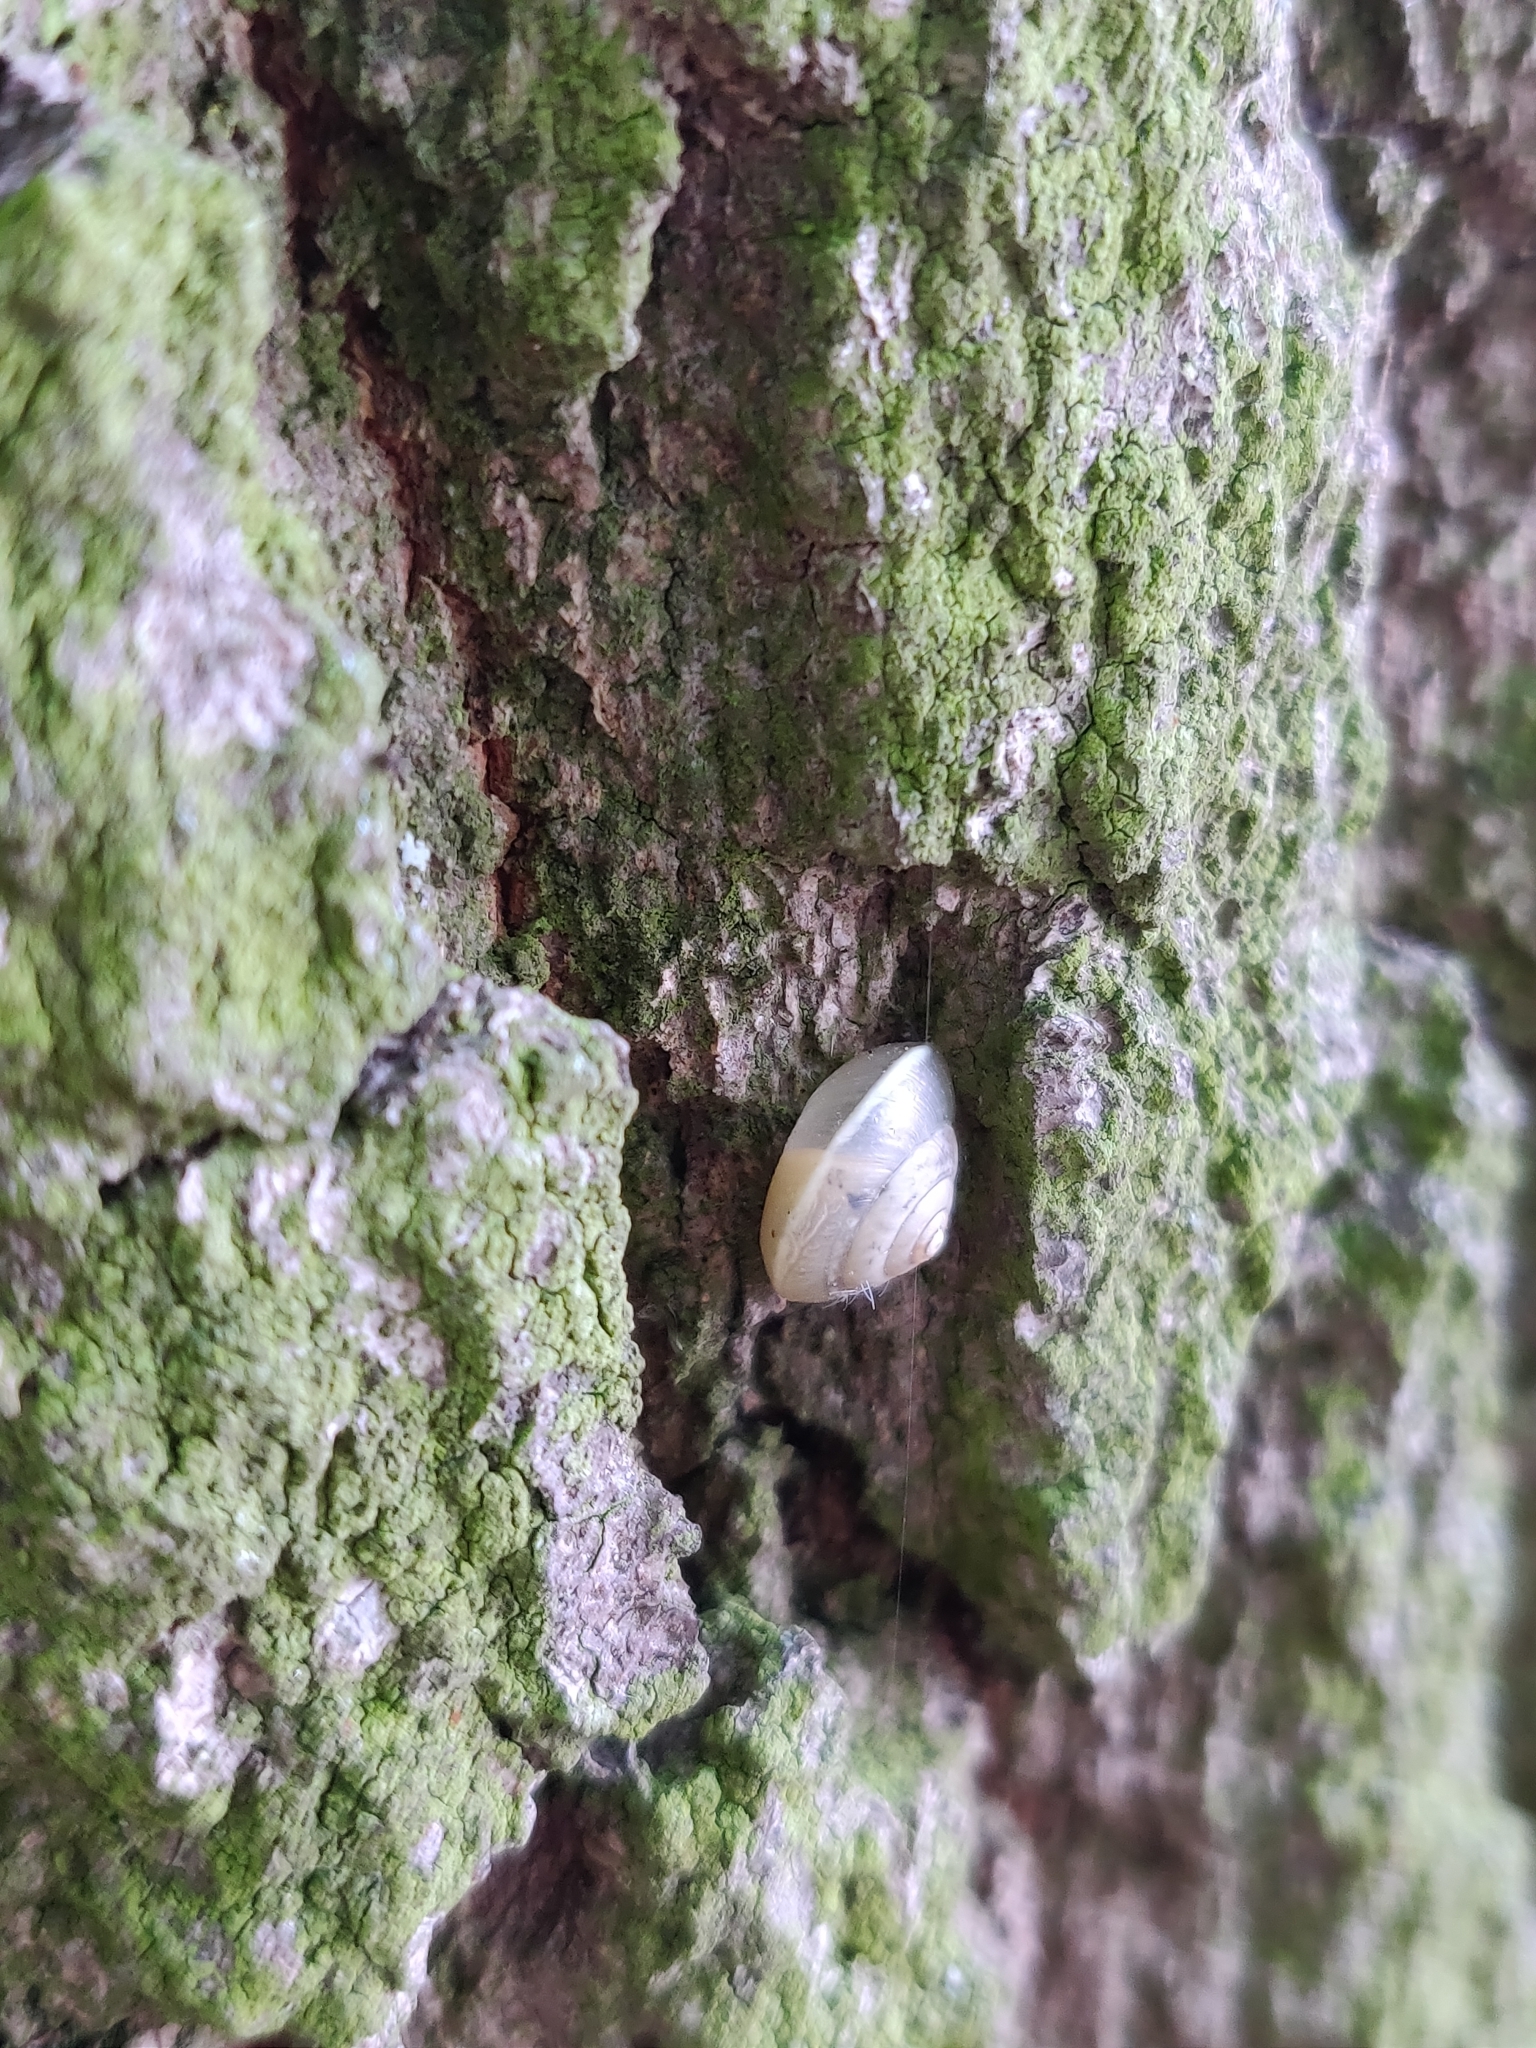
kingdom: Animalia
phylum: Mollusca
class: Gastropoda
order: Stylommatophora
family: Hygromiidae
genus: Hygromia
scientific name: Hygromia cinctella
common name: Girdled snail
